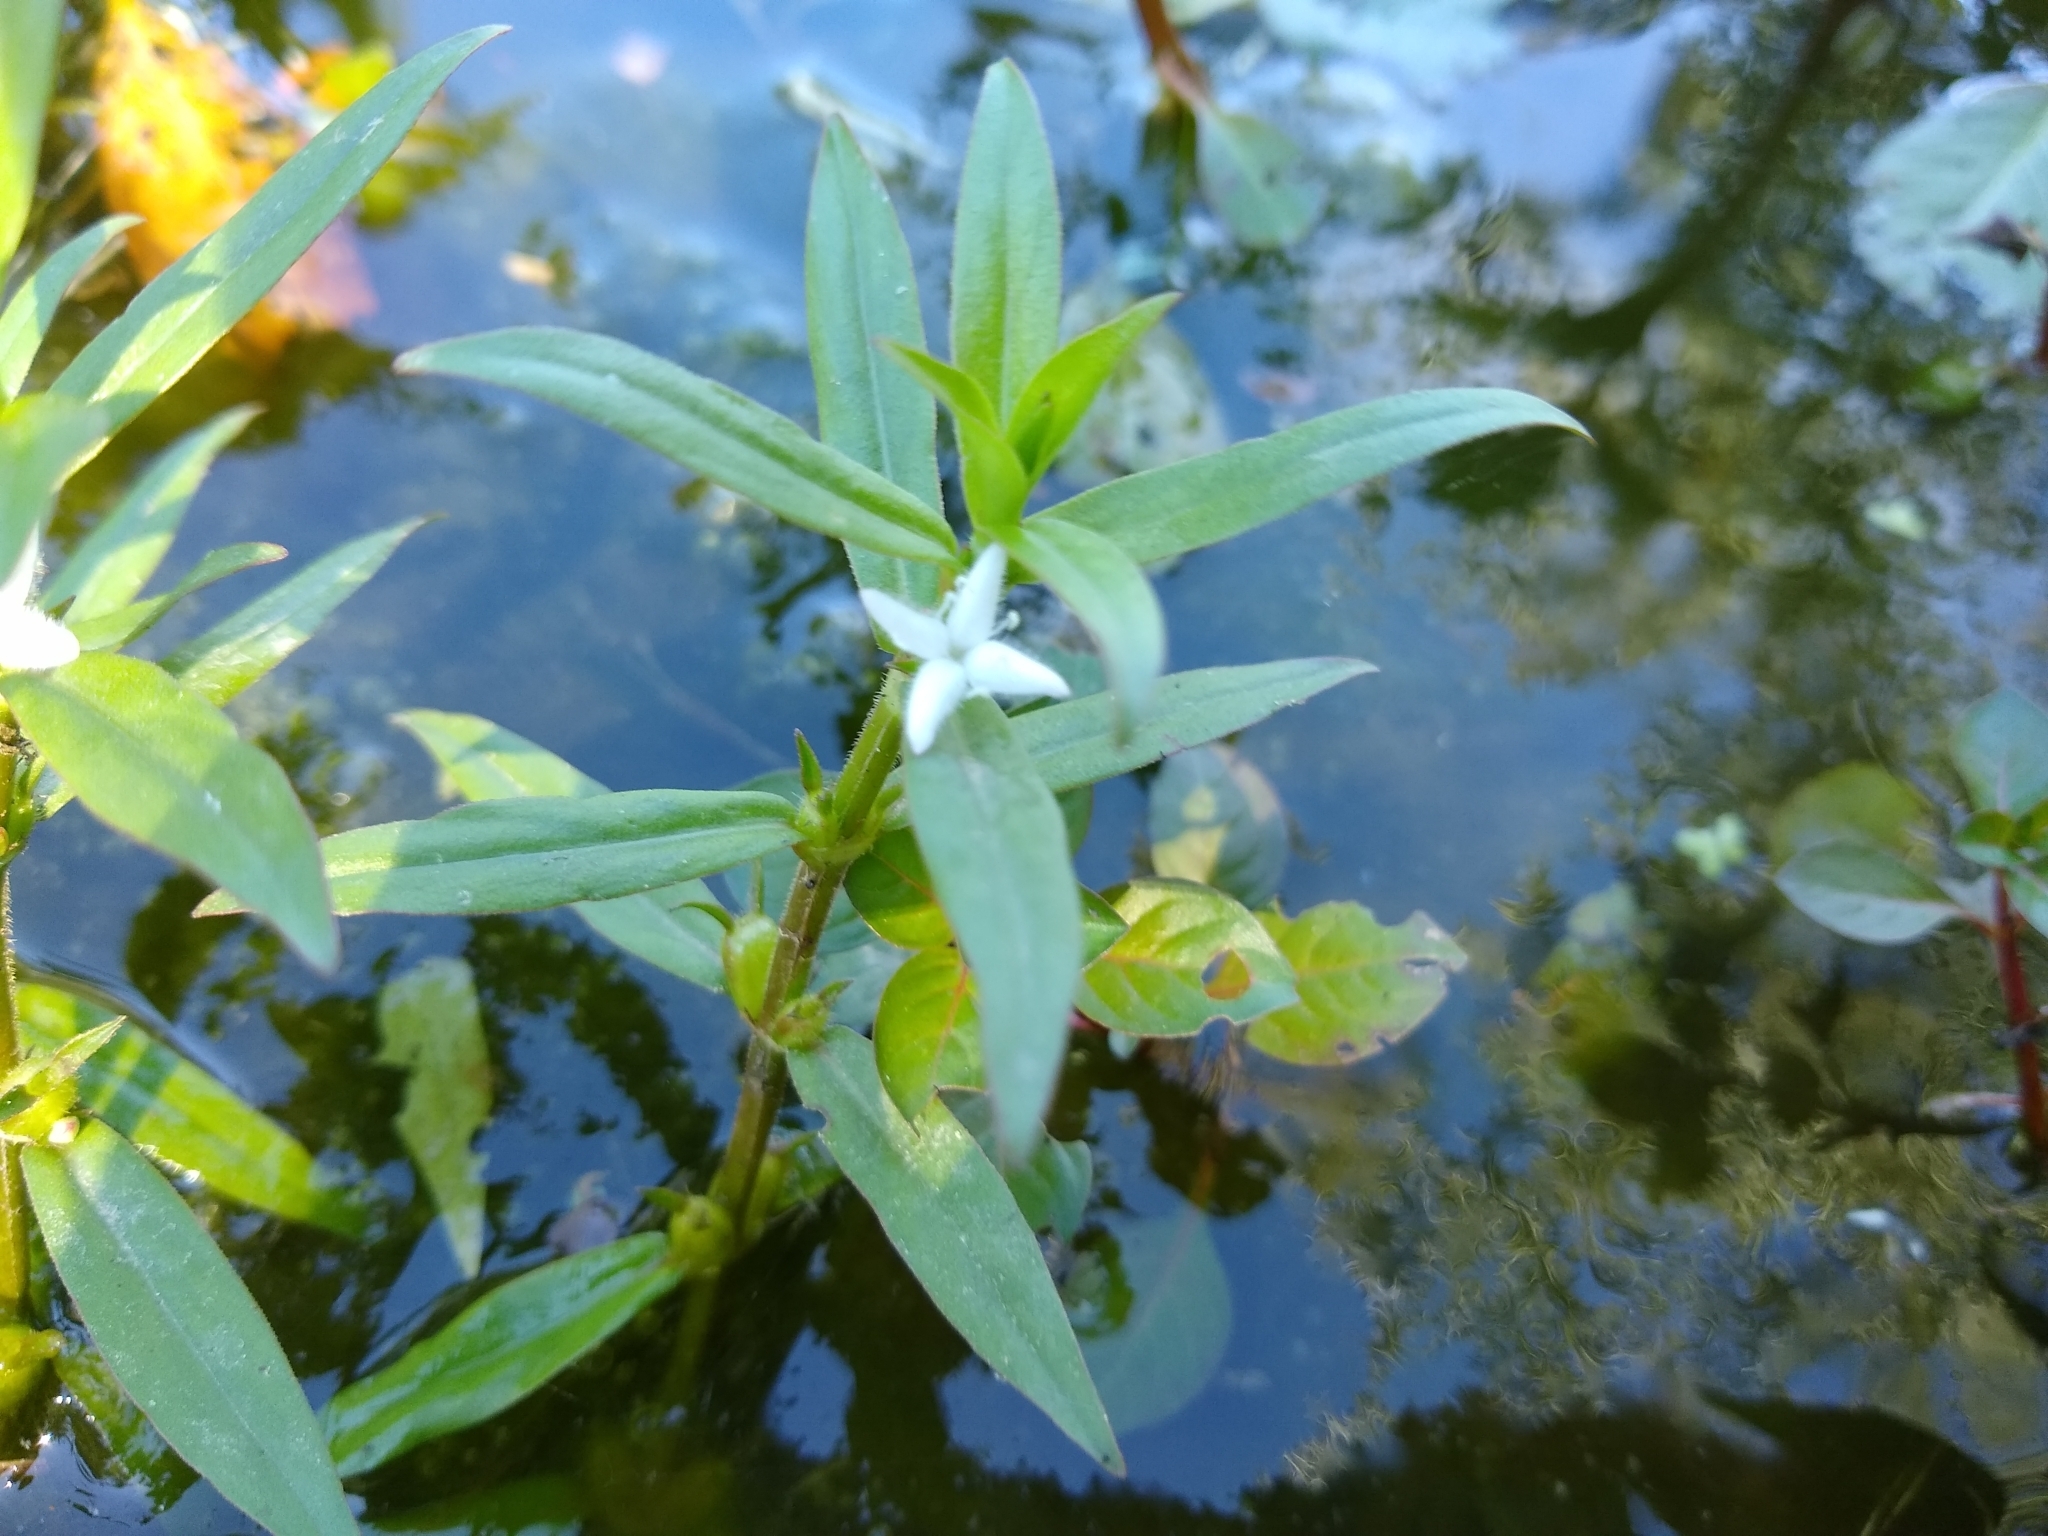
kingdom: Plantae
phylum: Tracheophyta
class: Magnoliopsida
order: Gentianales
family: Rubiaceae
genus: Diodia
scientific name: Diodia virginiana
